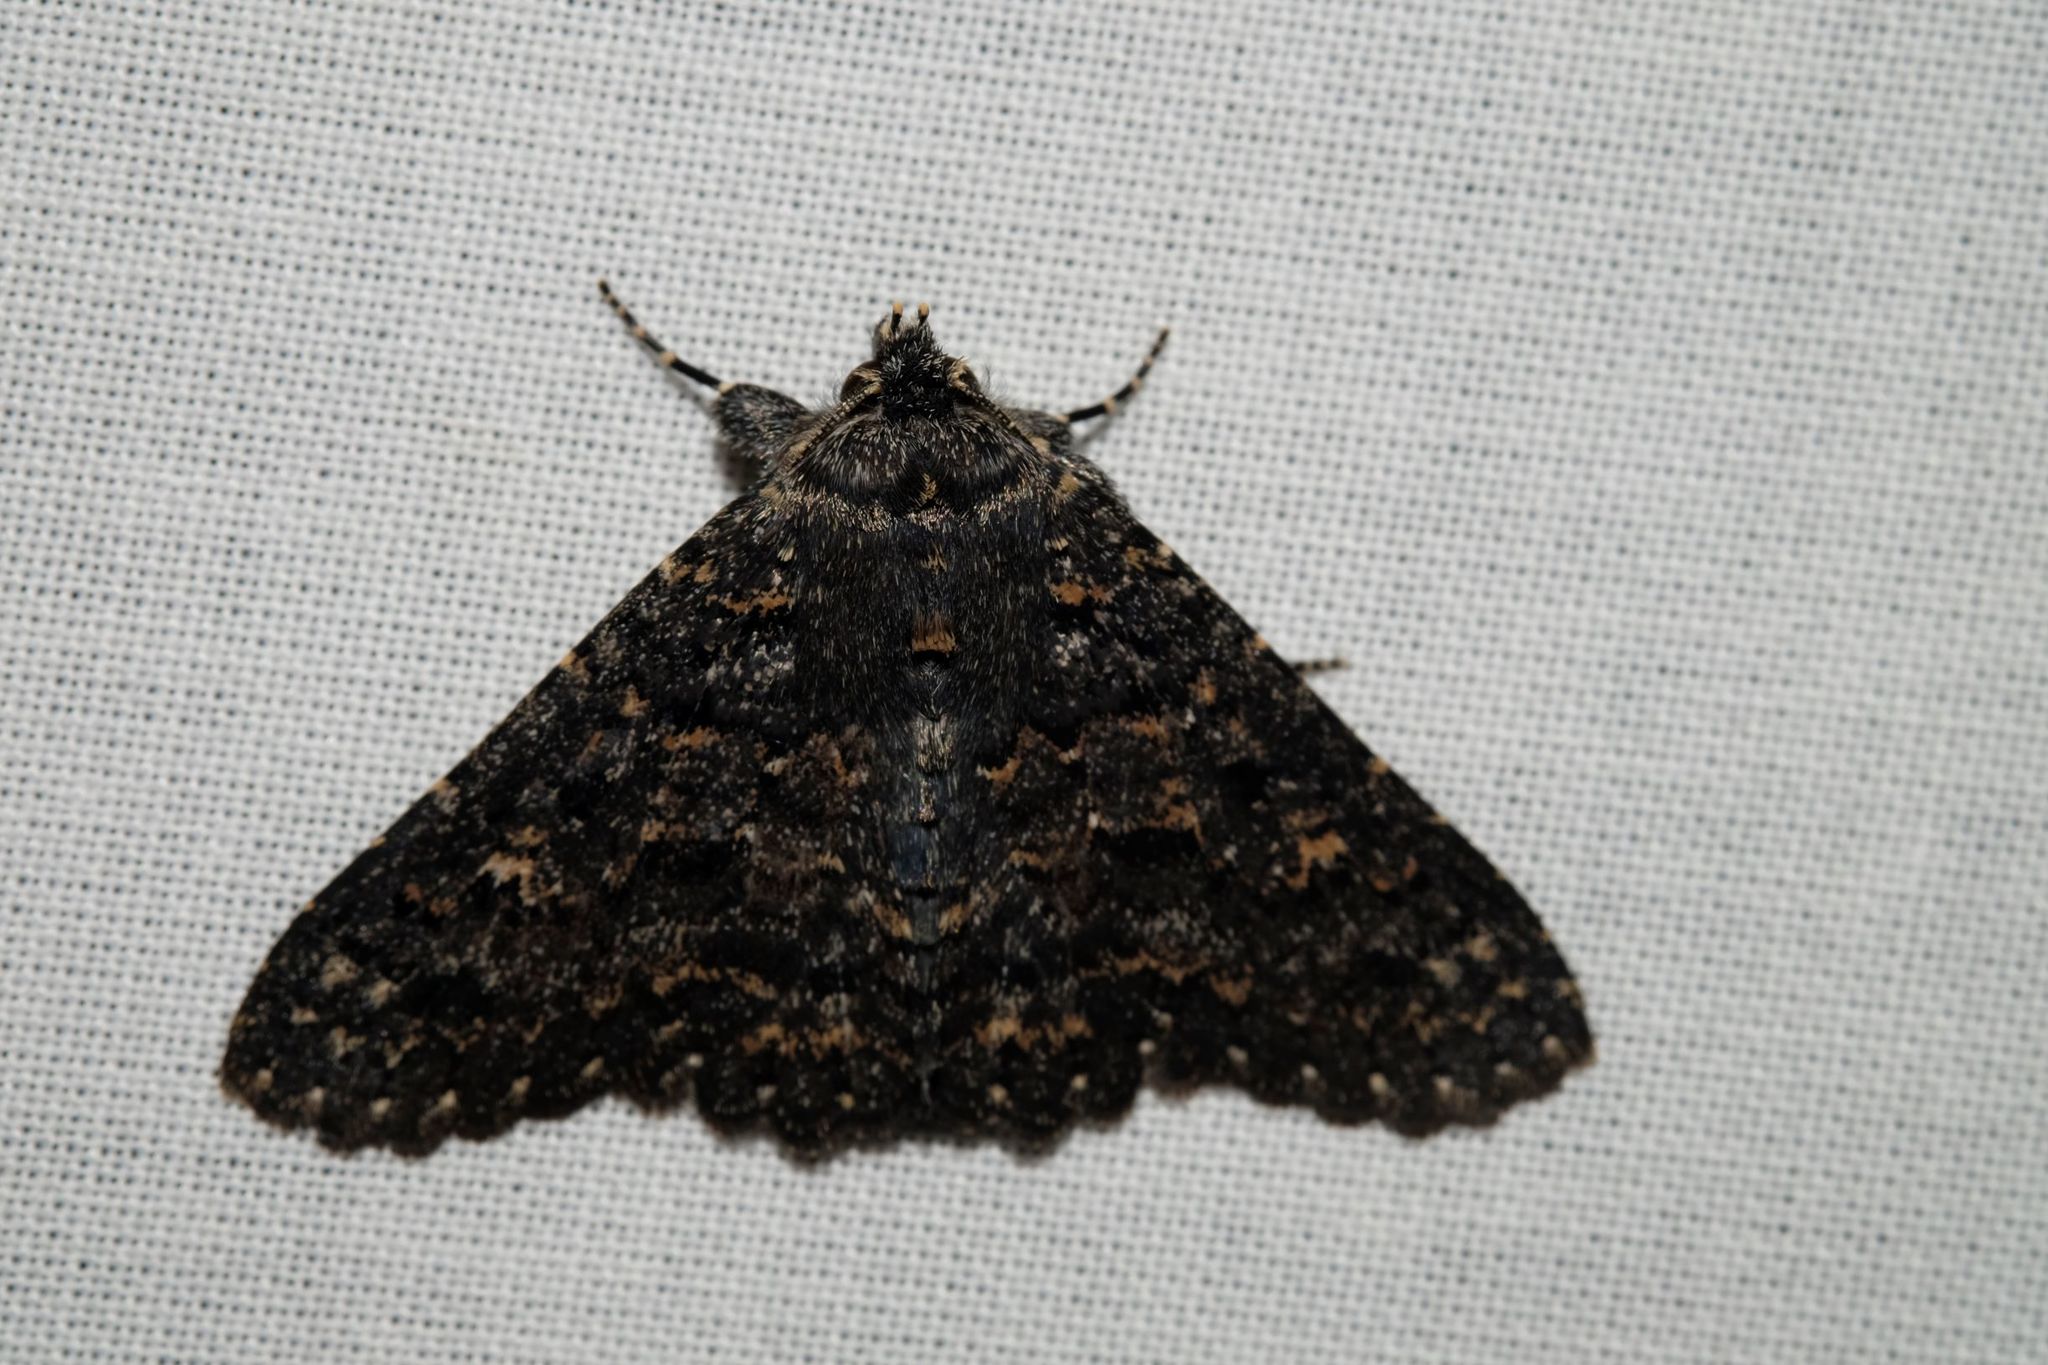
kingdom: Animalia
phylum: Arthropoda
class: Insecta
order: Lepidoptera
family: Erebidae
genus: Praxis
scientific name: Praxis edwardsii
